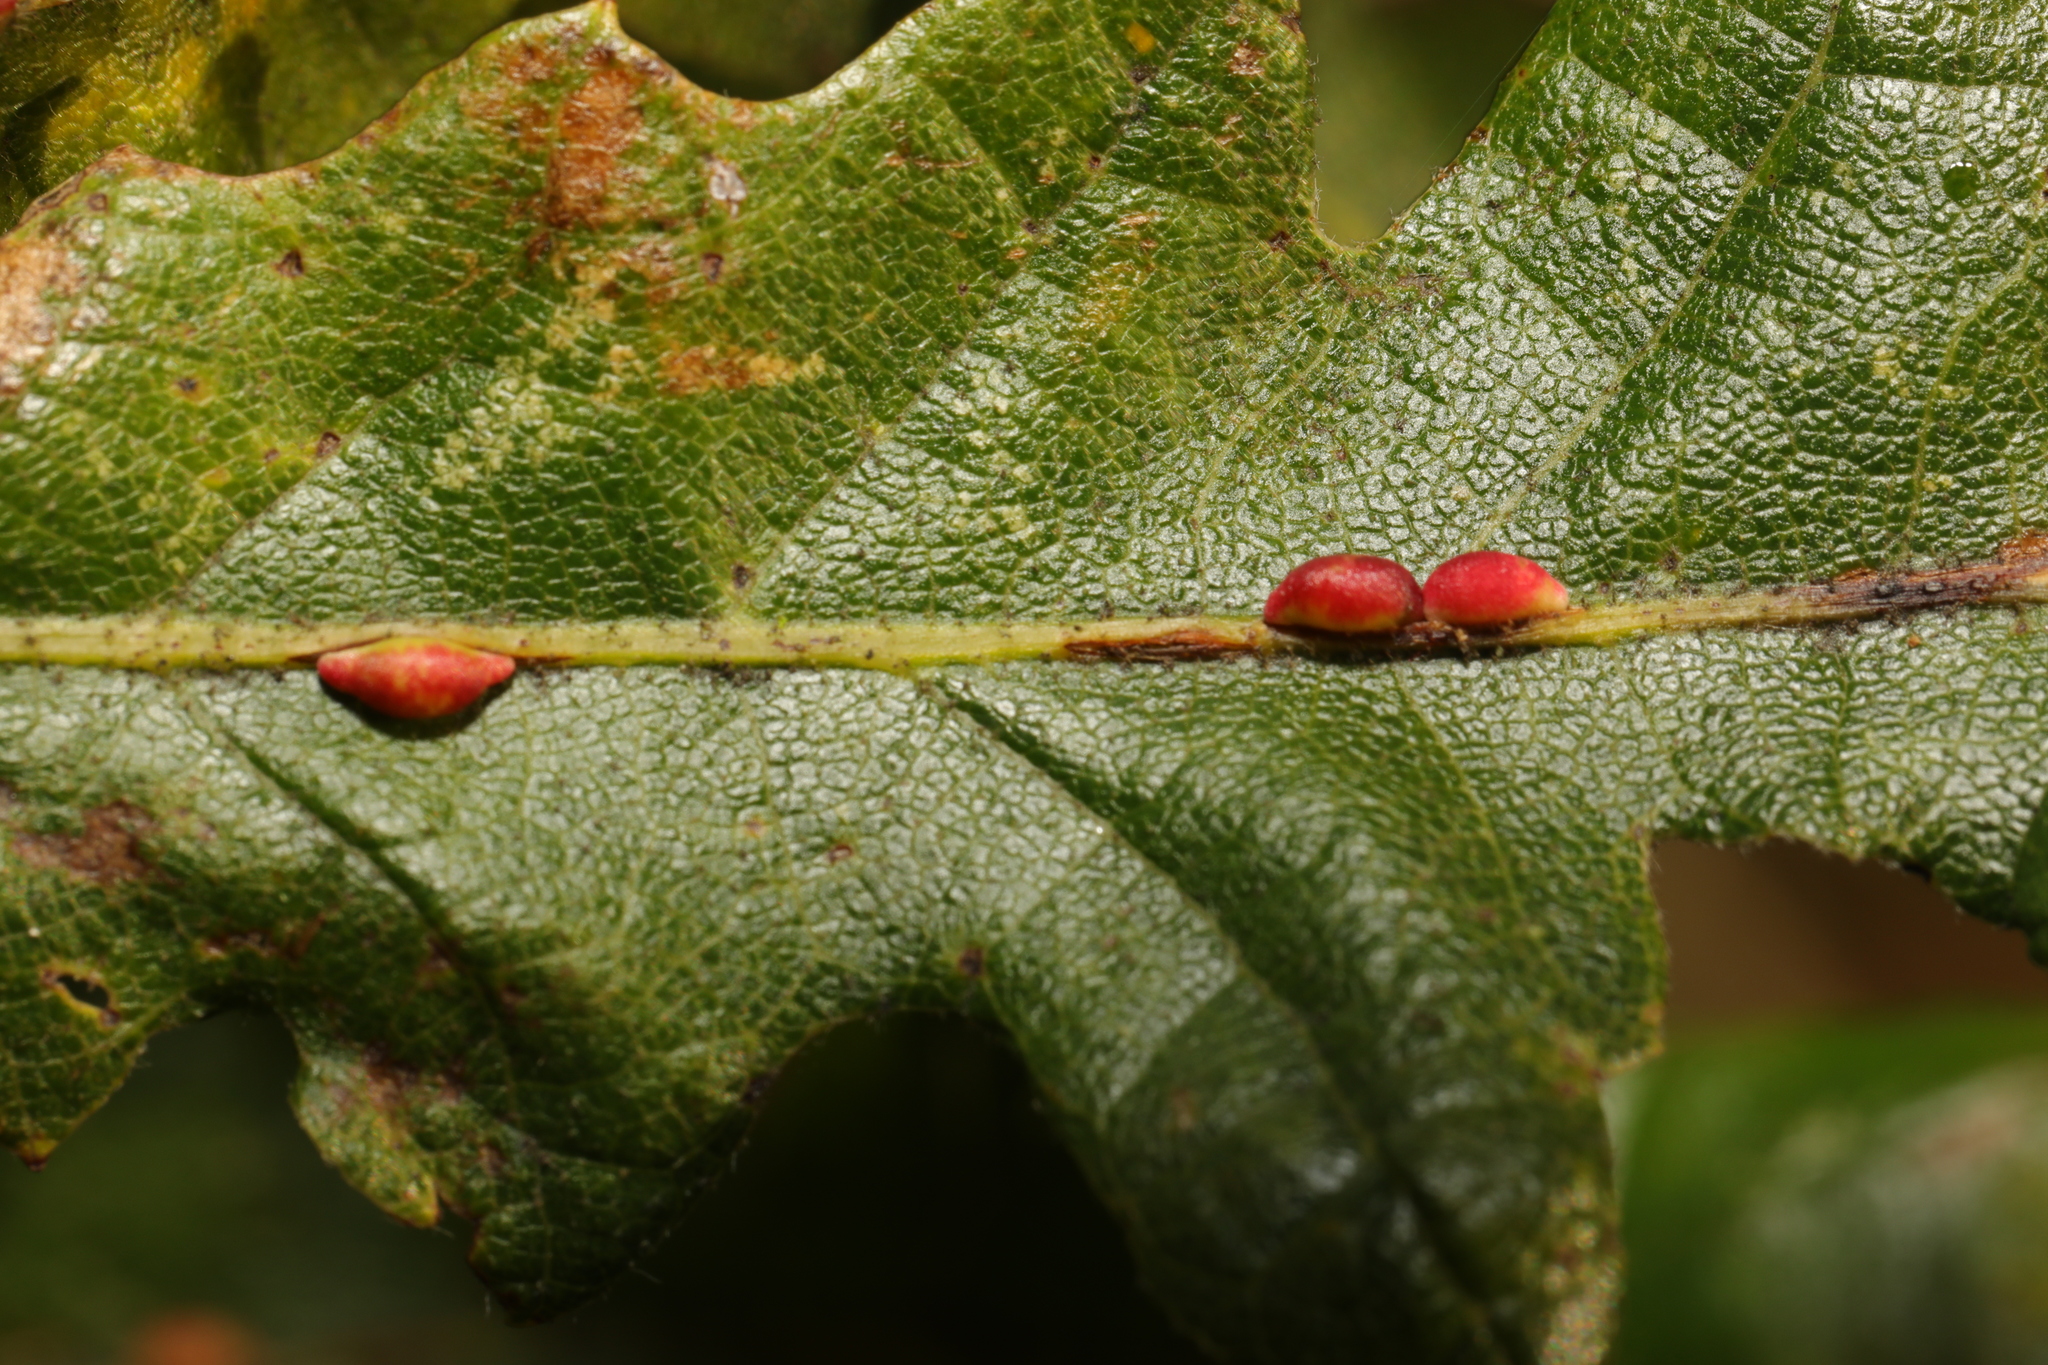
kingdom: Animalia
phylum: Arthropoda
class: Insecta
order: Hymenoptera
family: Cynipidae
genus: Neuroterus
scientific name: Neuroterus saliens
